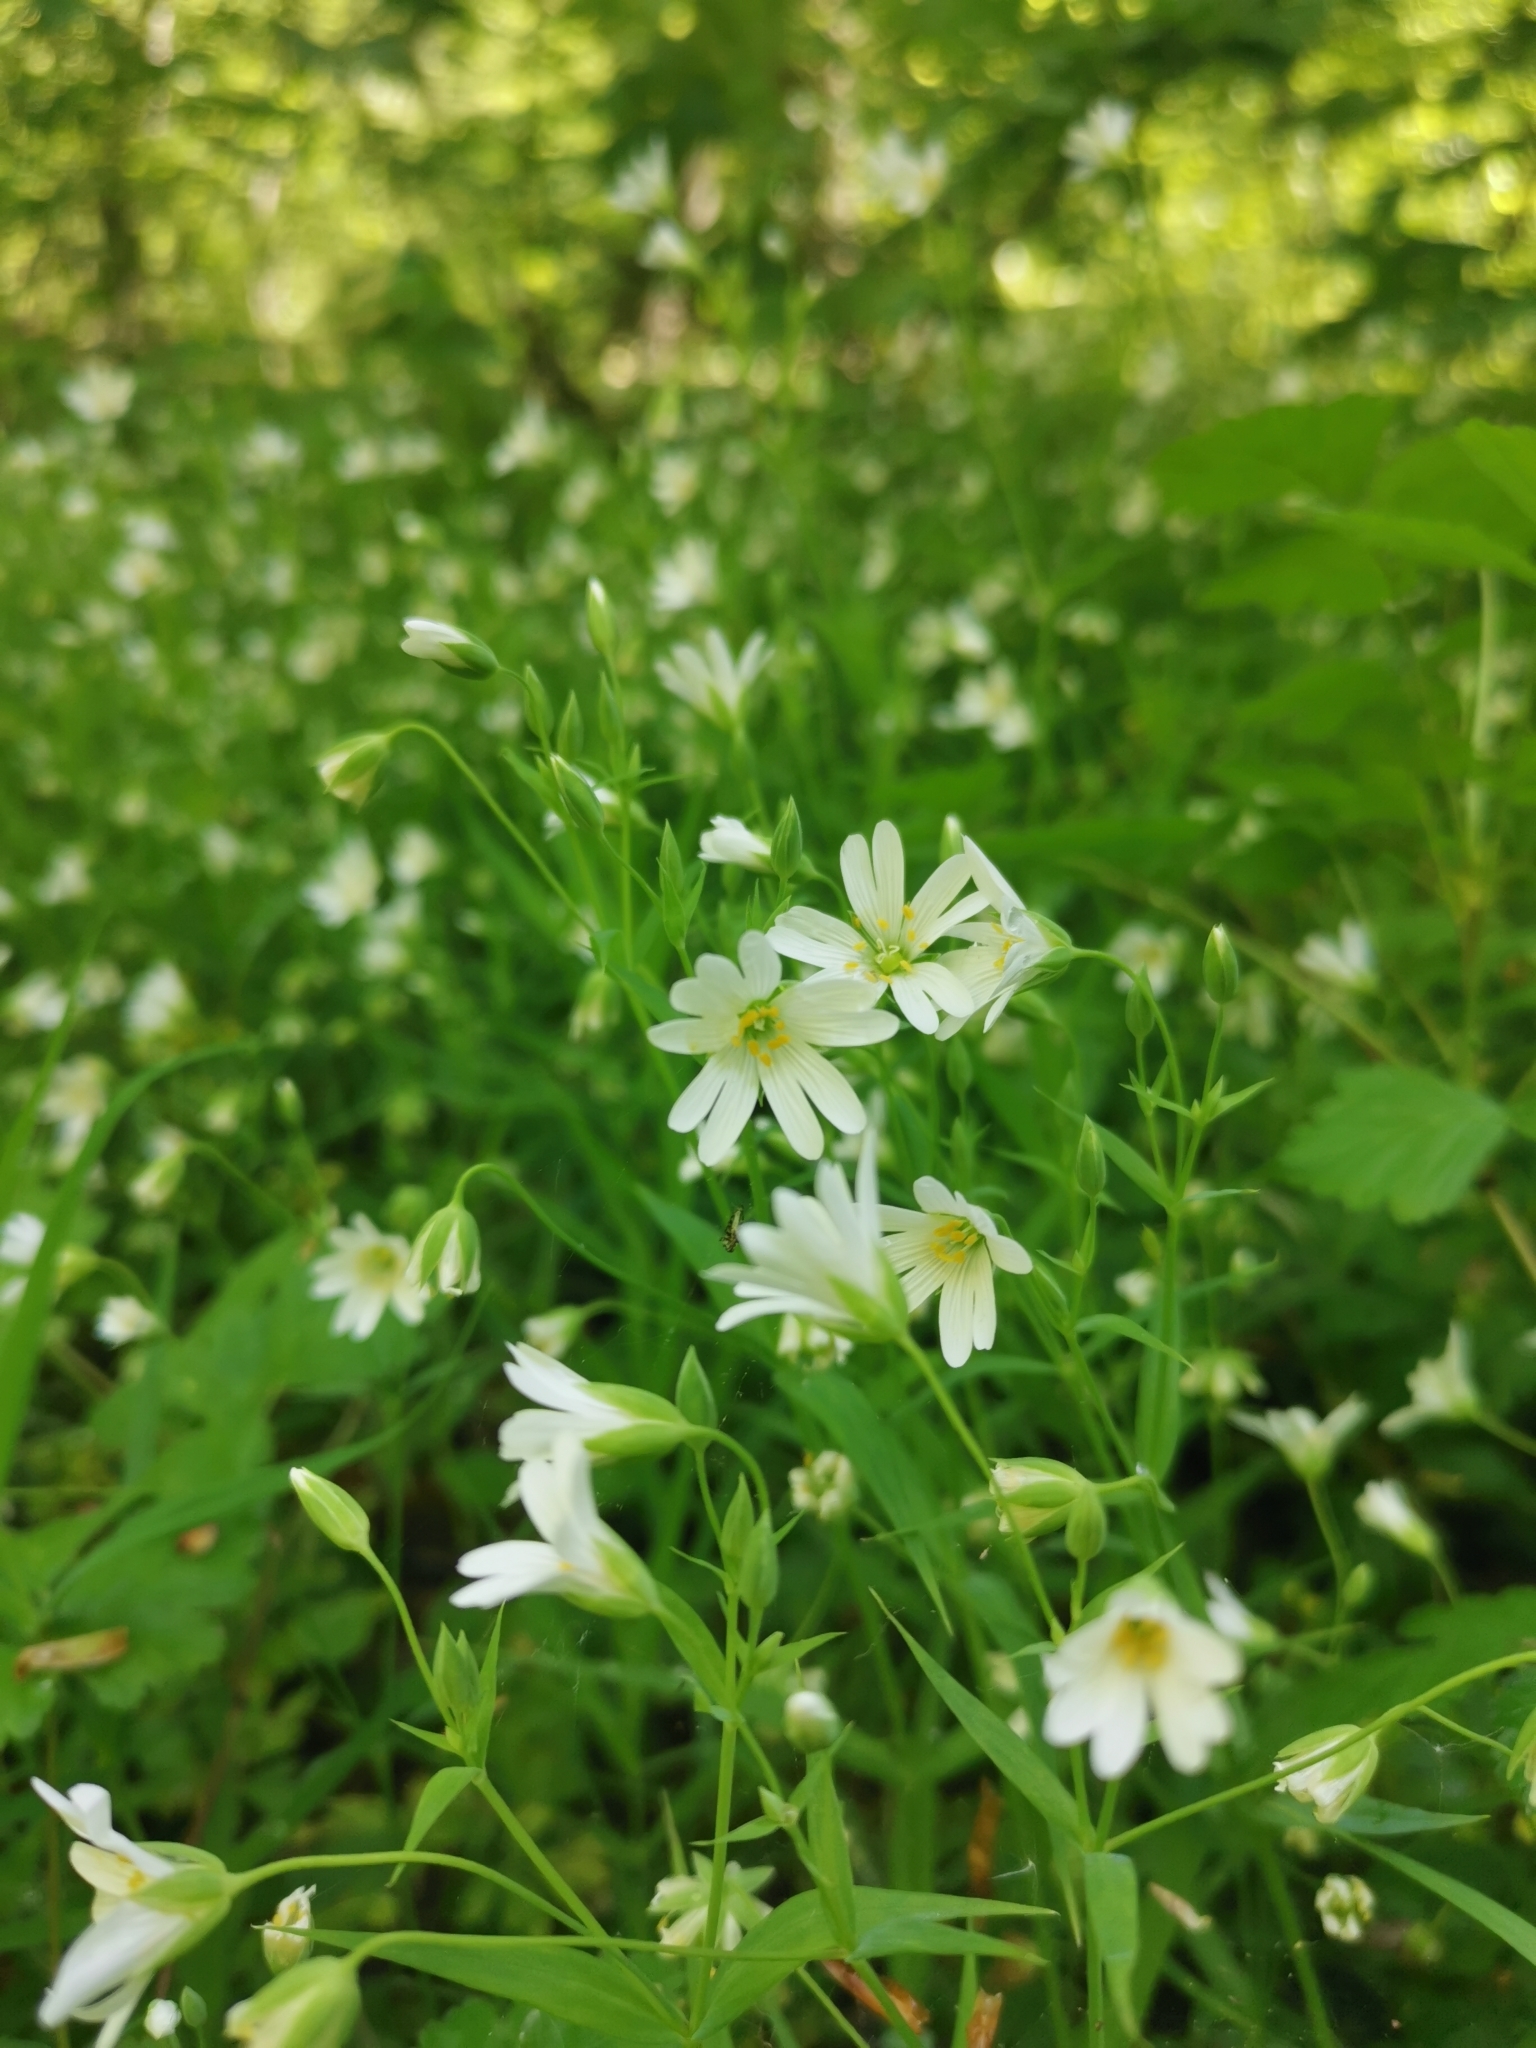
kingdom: Plantae
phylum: Tracheophyta
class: Magnoliopsida
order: Caryophyllales
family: Caryophyllaceae
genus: Rabelera
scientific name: Rabelera holostea
